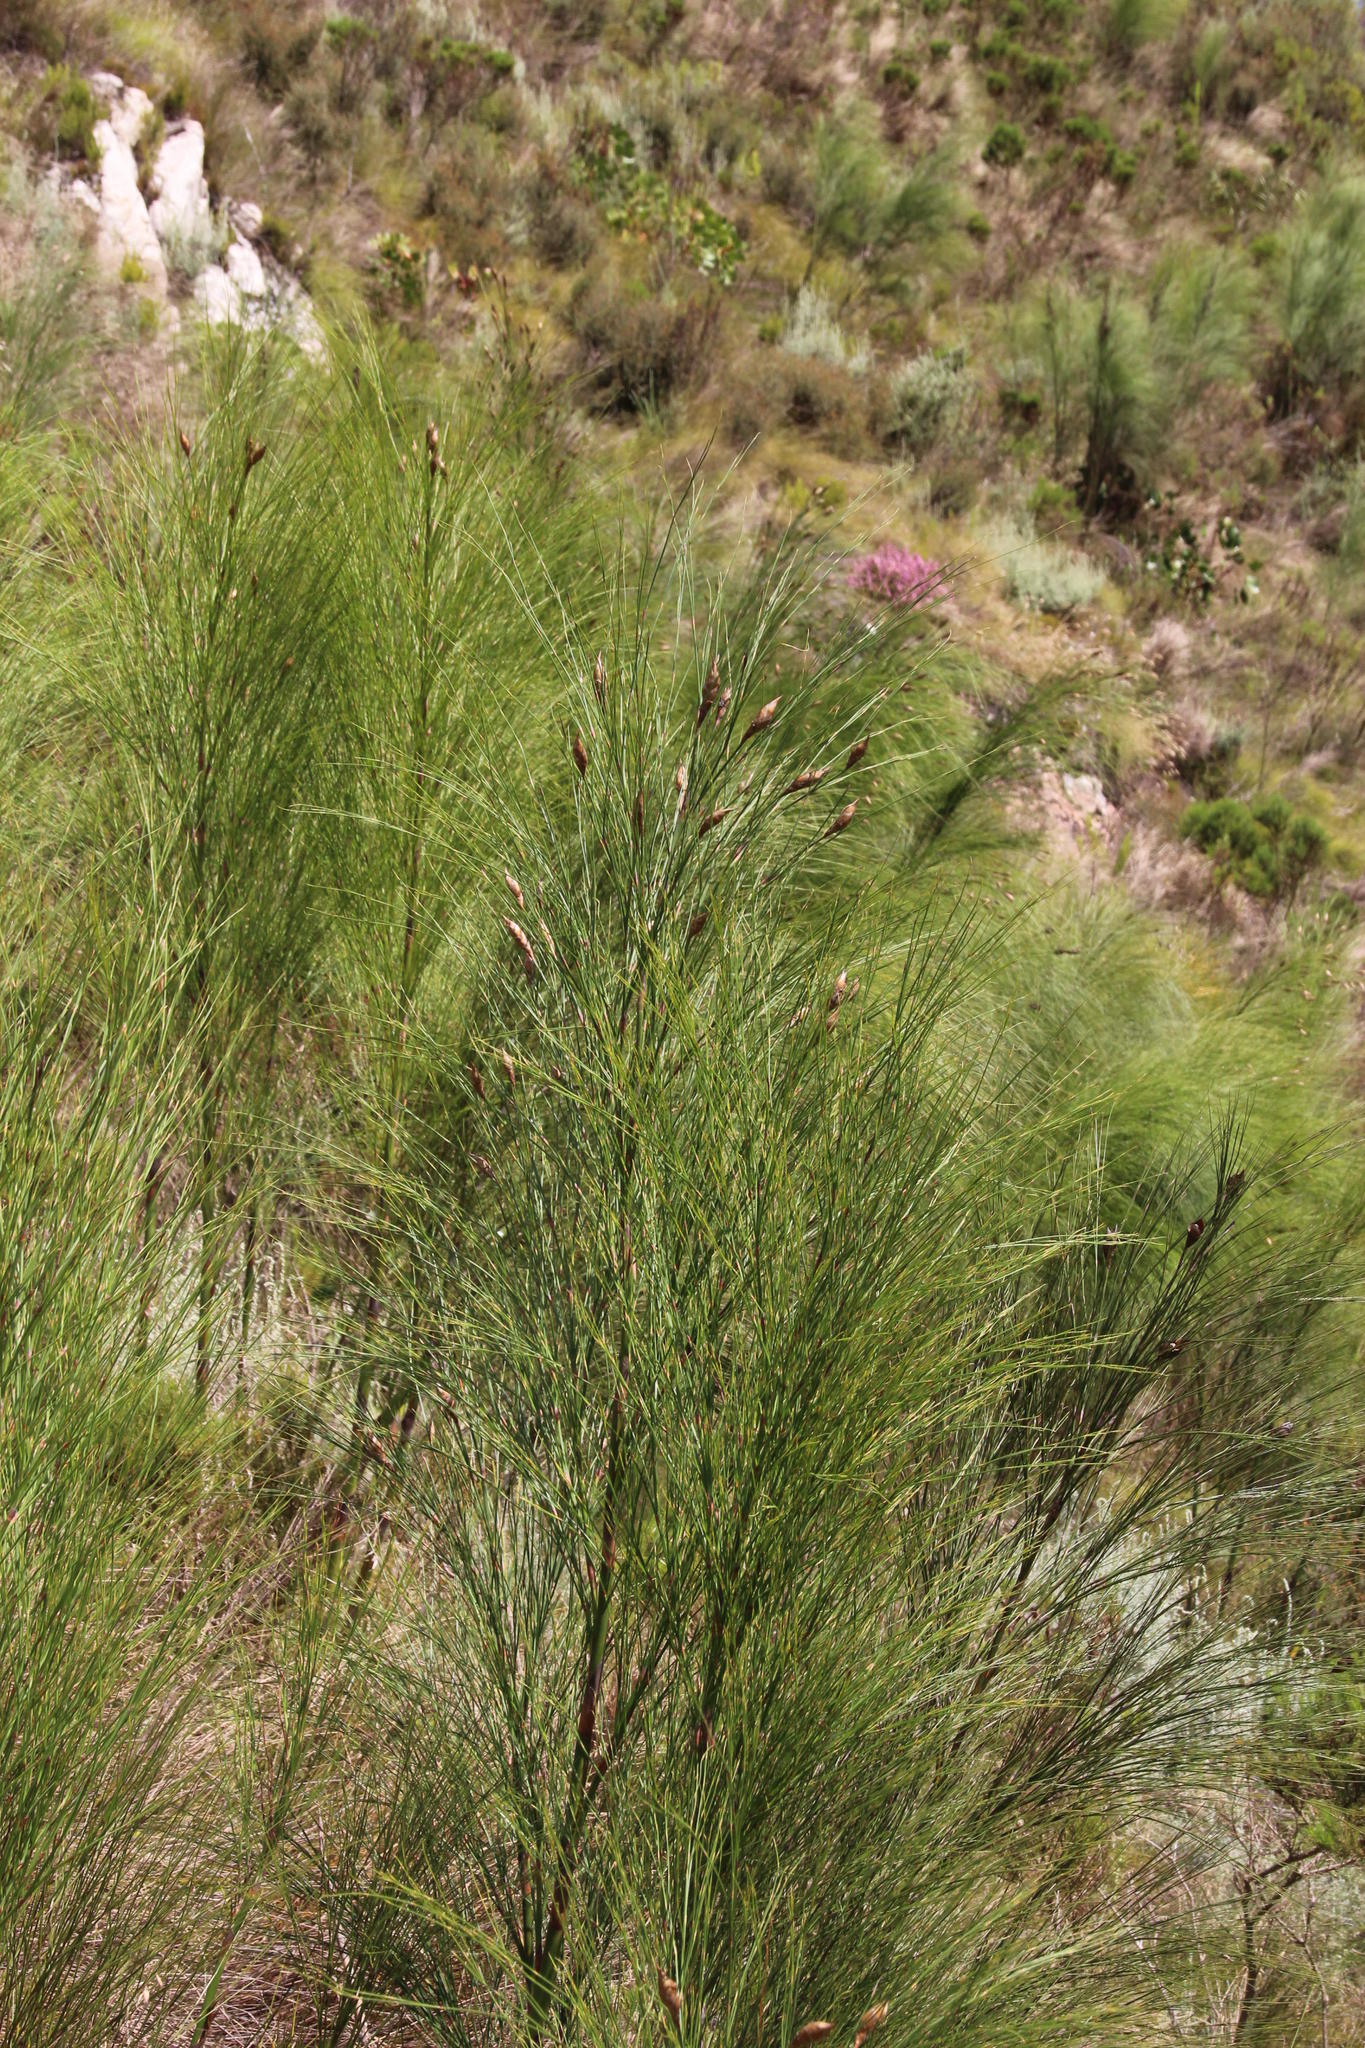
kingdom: Plantae
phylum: Tracheophyta
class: Liliopsida
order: Poales
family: Restionaceae
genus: Cannomois
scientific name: Cannomois virgata
